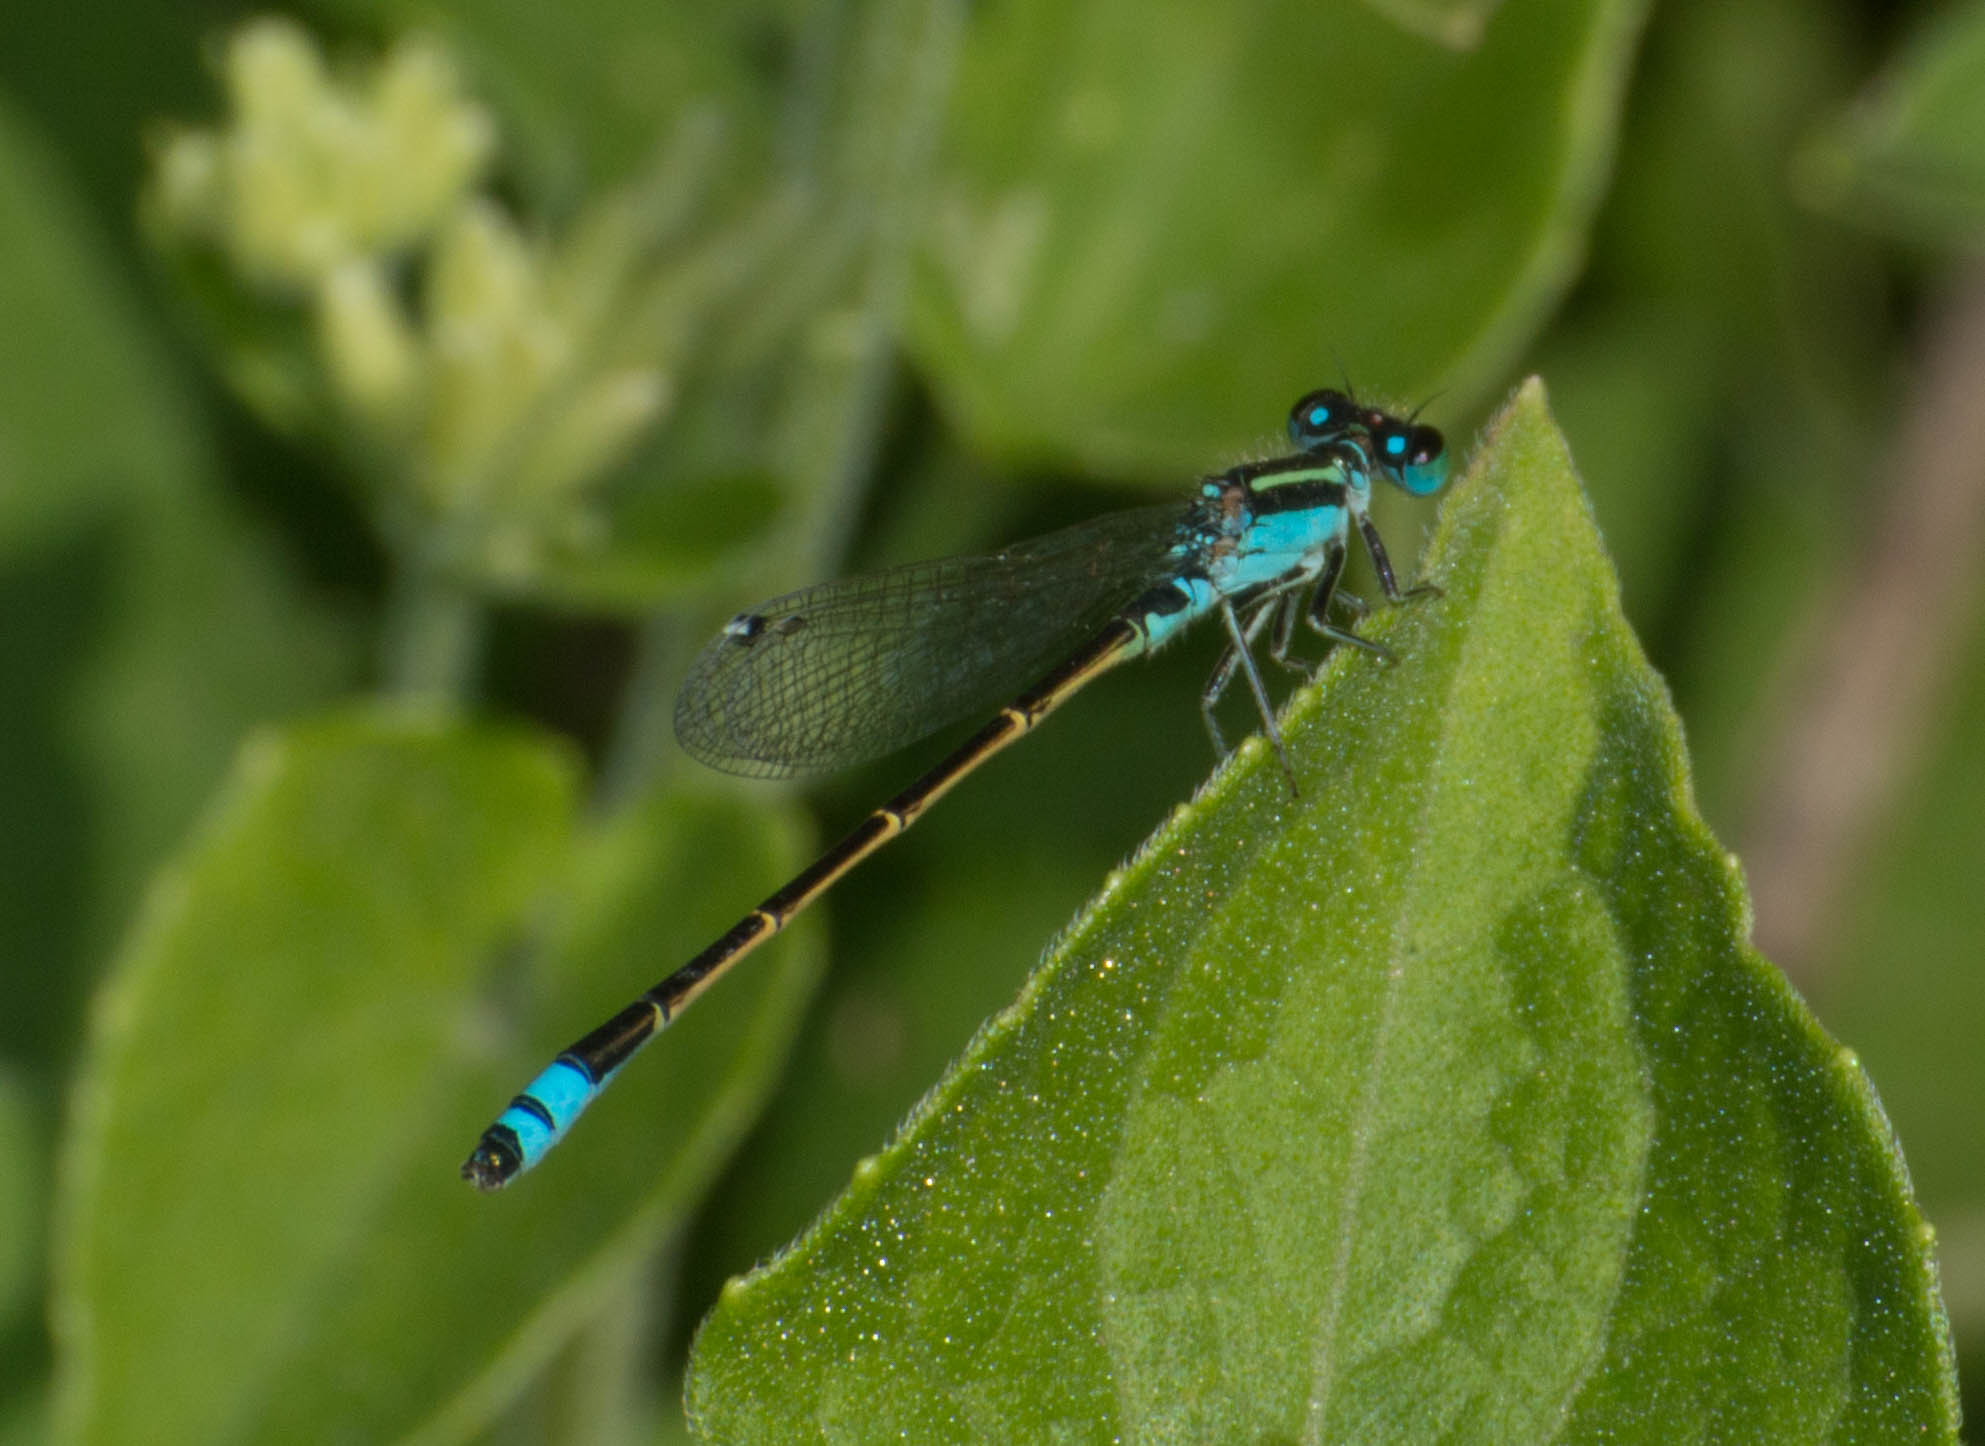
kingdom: Animalia
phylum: Arthropoda
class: Insecta
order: Odonata
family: Coenagrionidae
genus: Ischnura
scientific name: Ischnura fluviatilis
